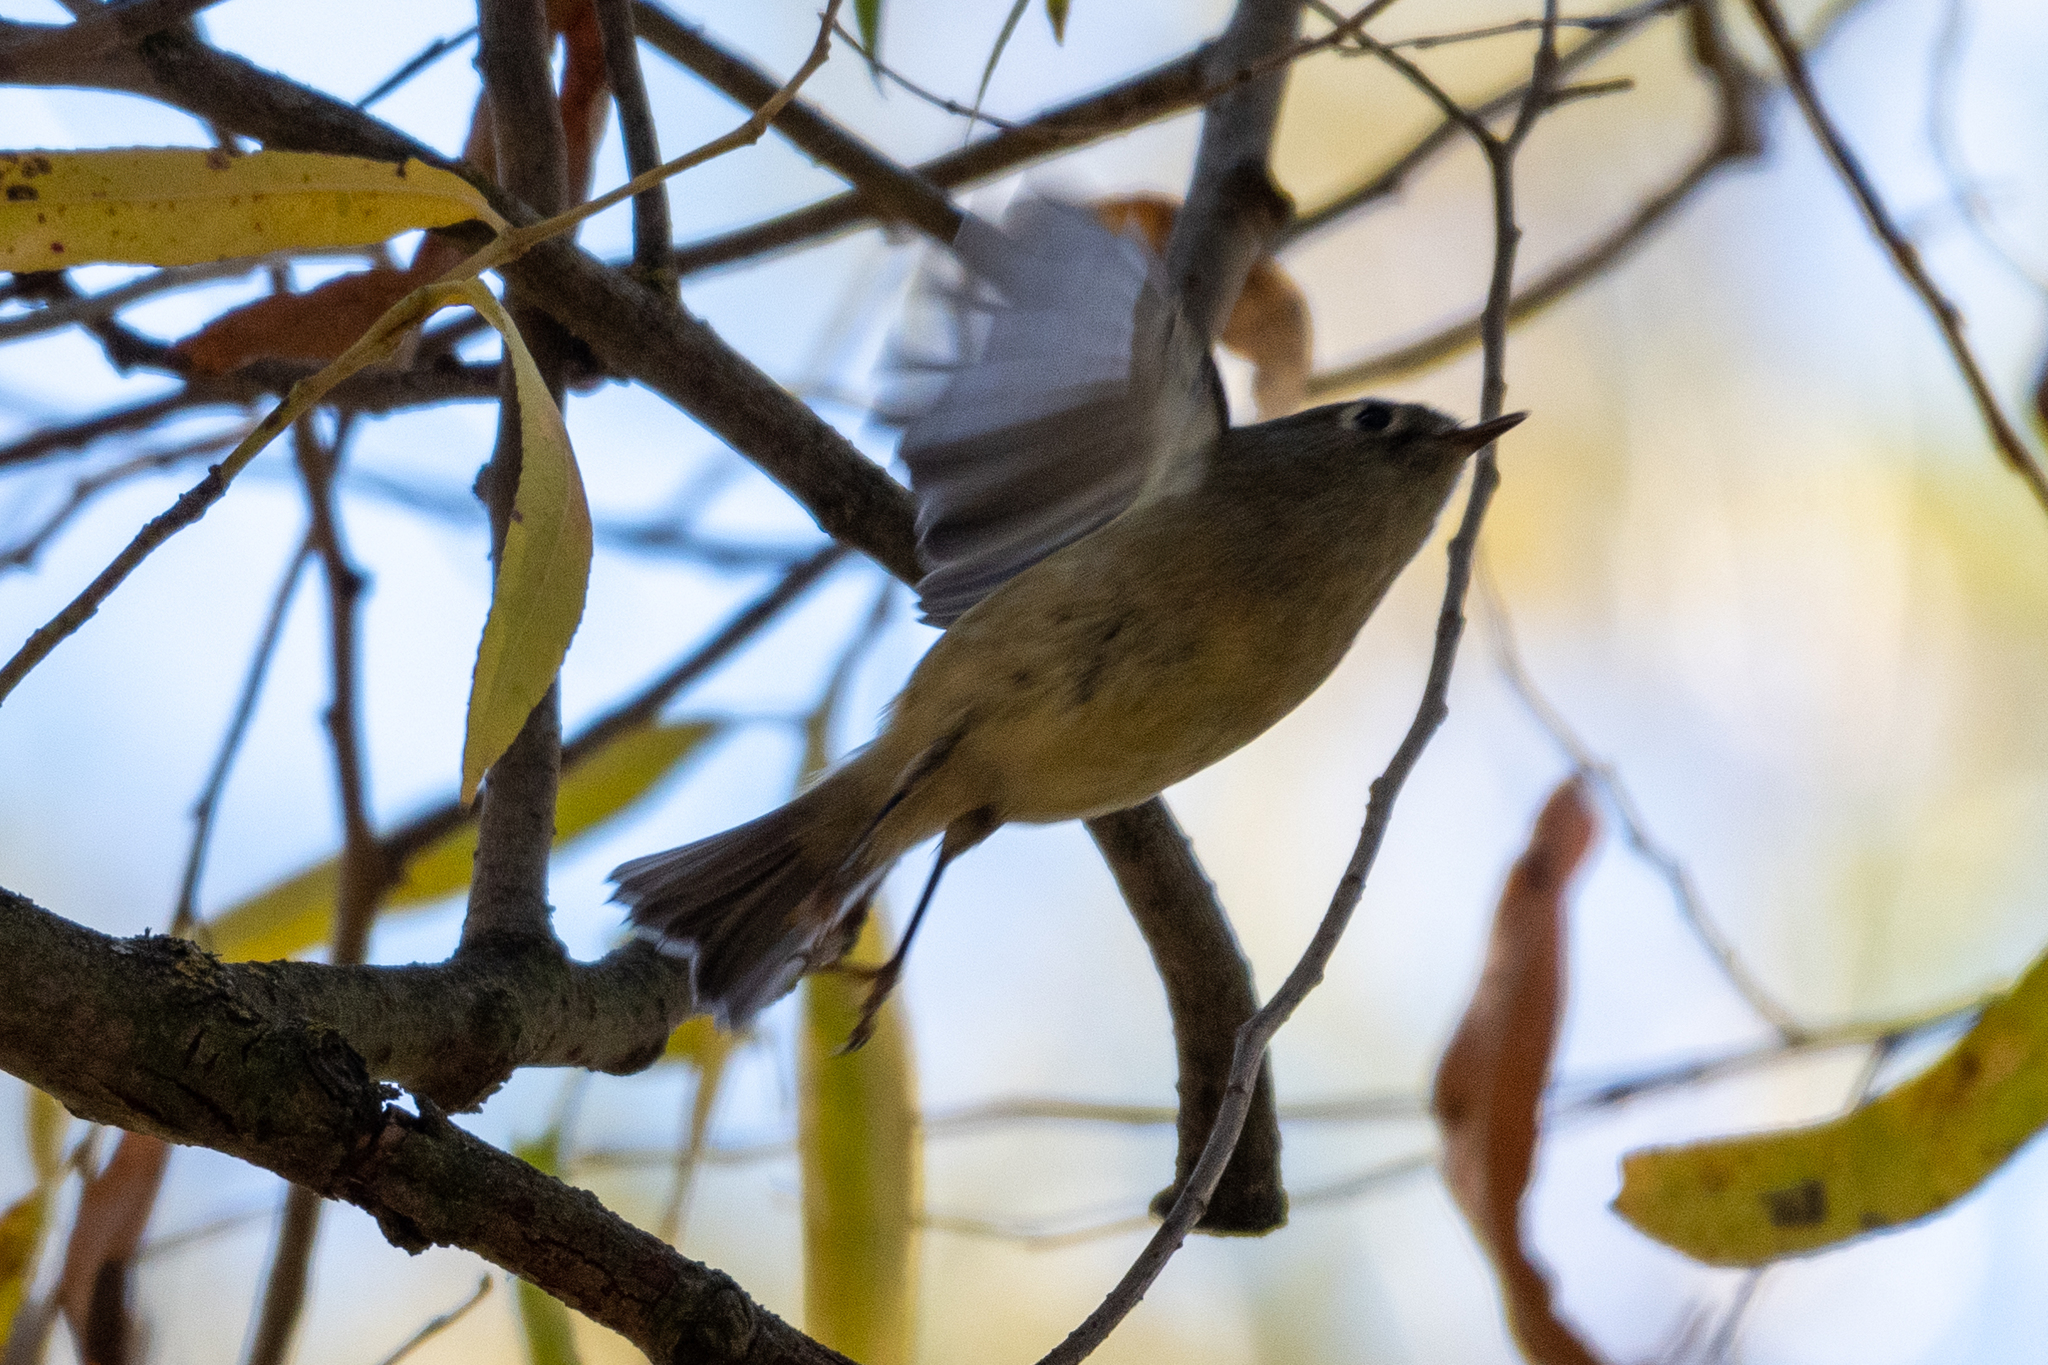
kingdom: Animalia
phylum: Chordata
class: Aves
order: Passeriformes
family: Regulidae
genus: Regulus
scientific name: Regulus calendula
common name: Ruby-crowned kinglet
